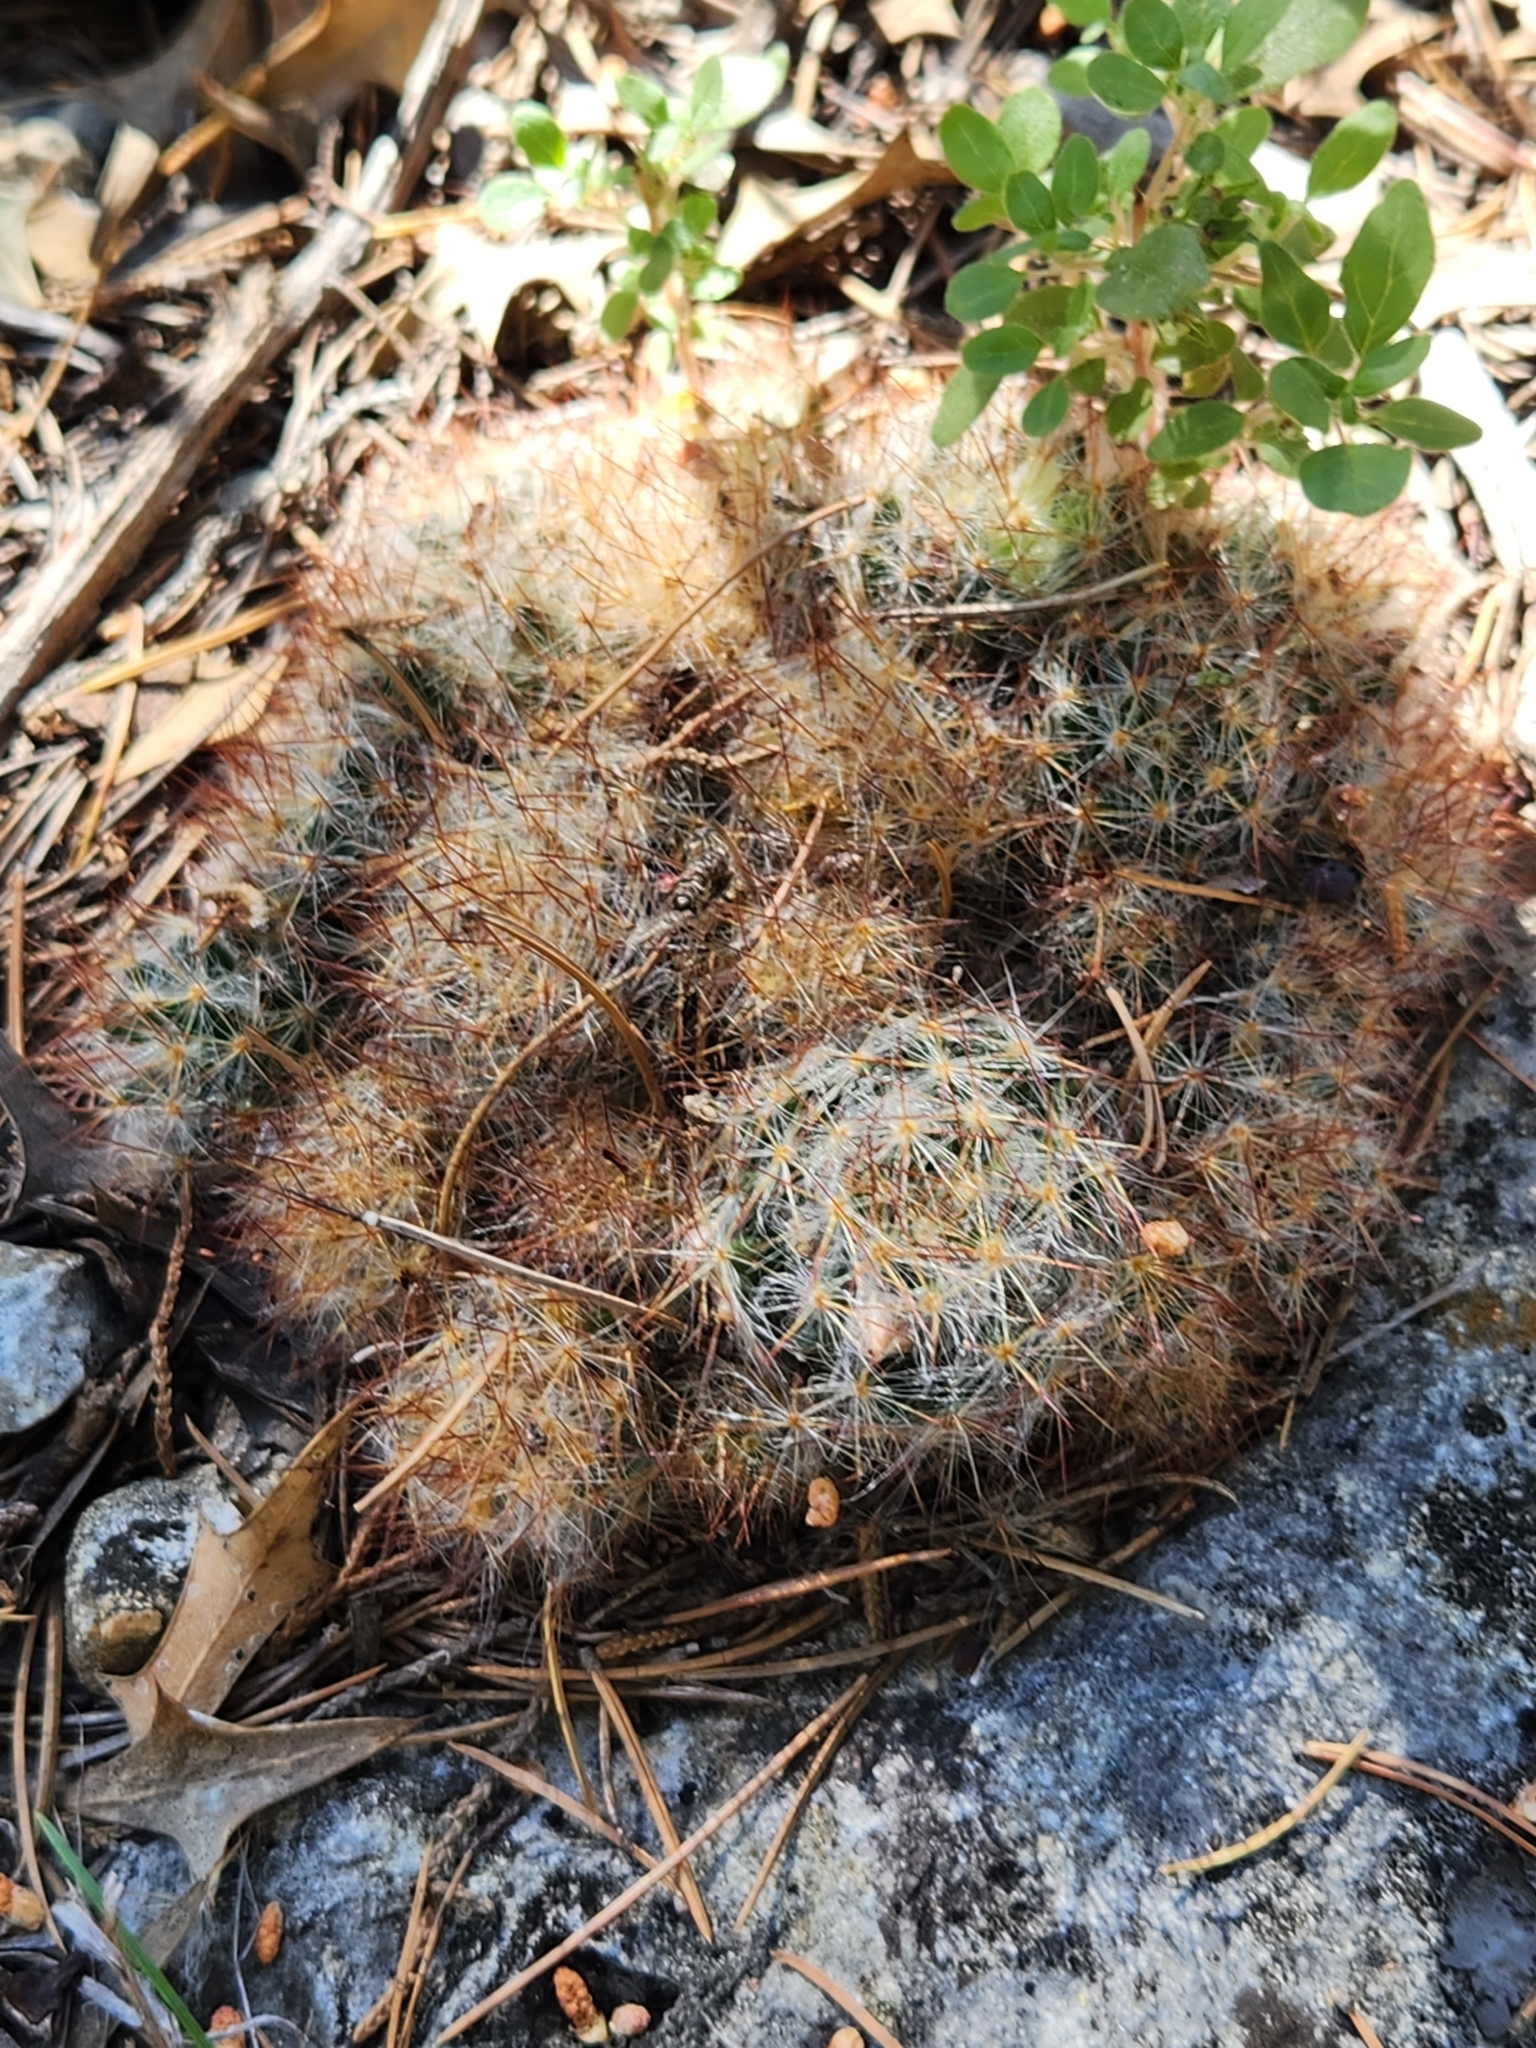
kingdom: Plantae
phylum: Tracheophyta
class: Magnoliopsida
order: Caryophyllales
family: Cactaceae
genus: Mammillaria
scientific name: Mammillaria prolifera
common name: Texas nipple cactus
